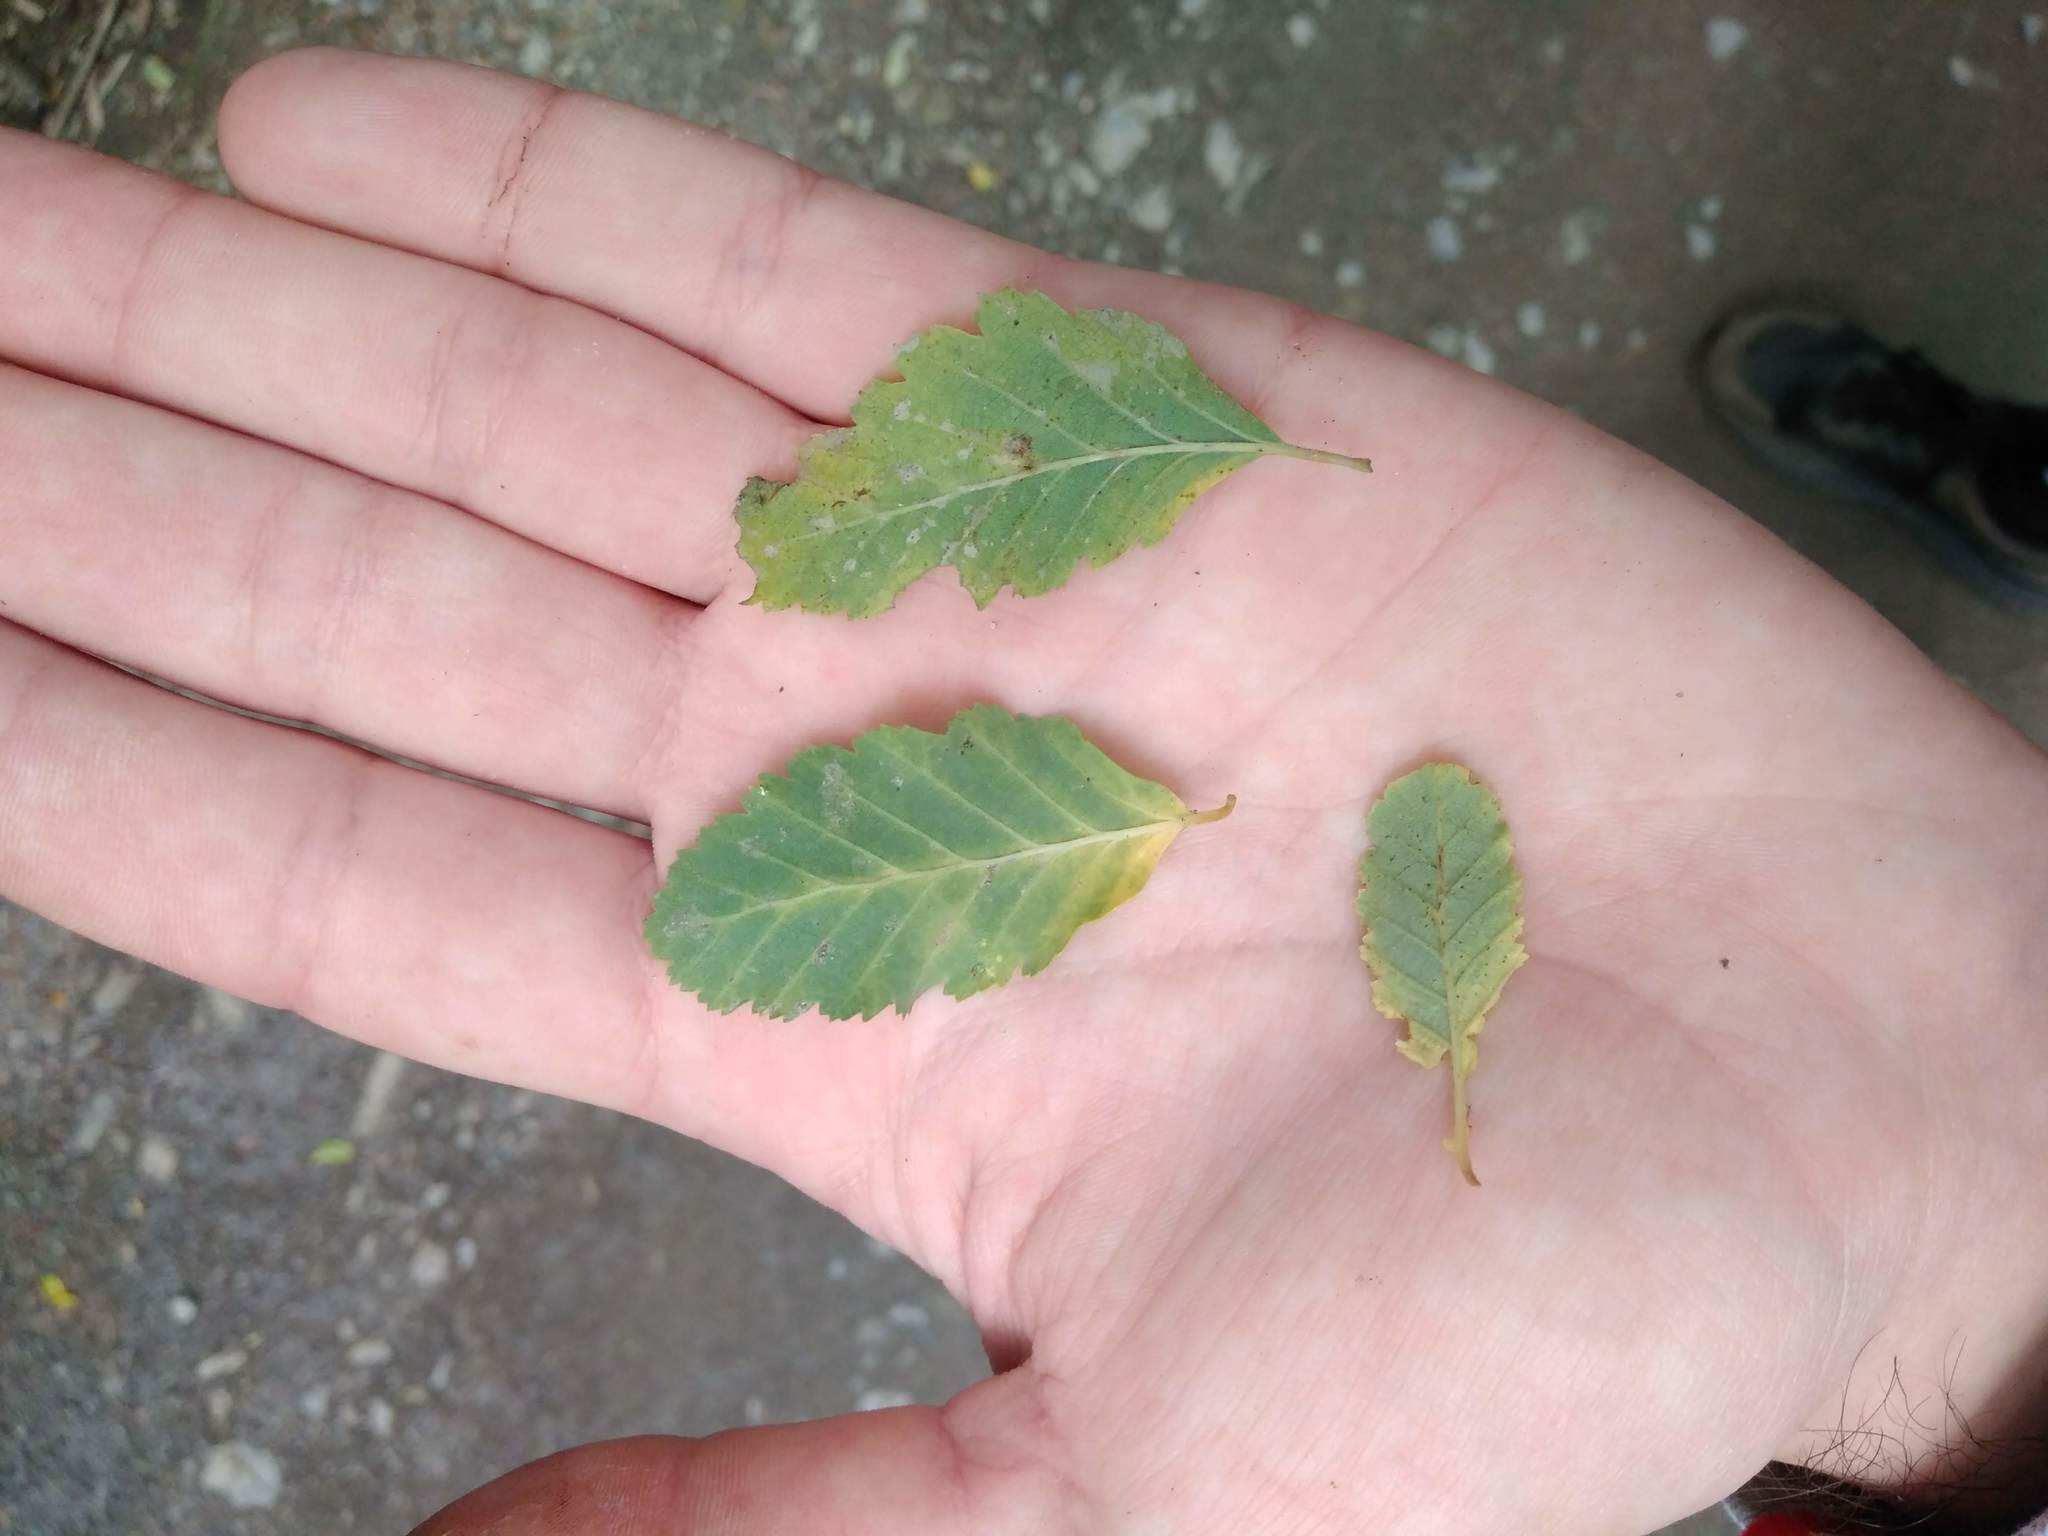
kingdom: Plantae
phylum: Tracheophyta
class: Magnoliopsida
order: Fagales
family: Nothofagaceae
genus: Nothofagus
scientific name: Nothofagus obliqua
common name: Roble beech
